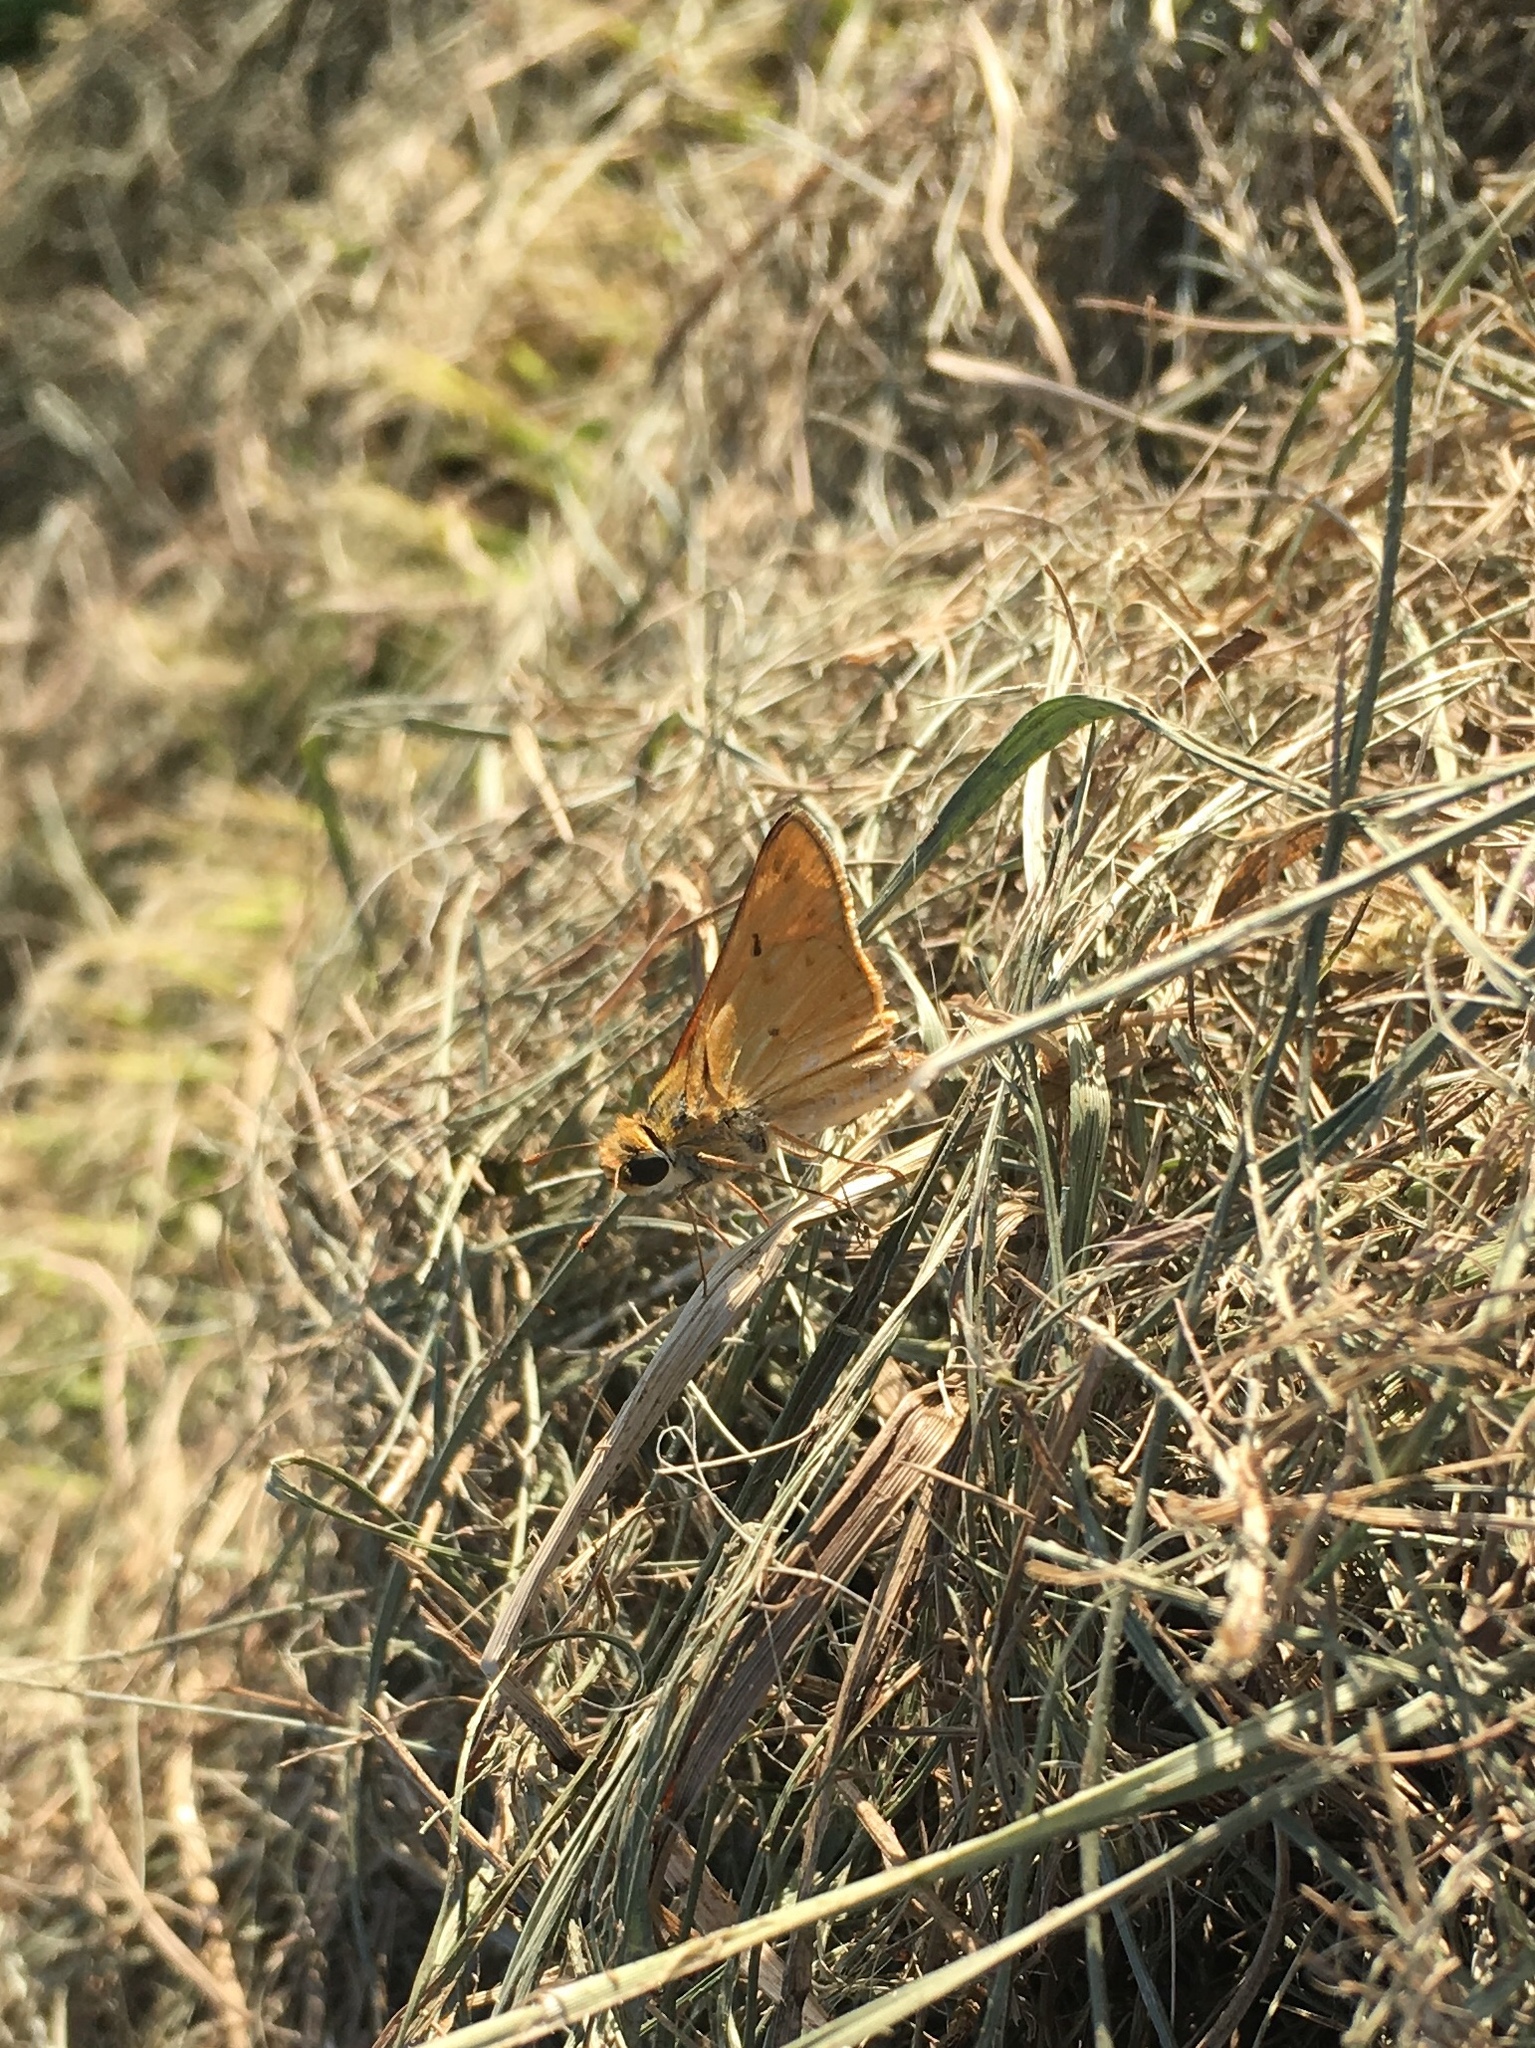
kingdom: Animalia
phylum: Arthropoda
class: Insecta
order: Lepidoptera
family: Hesperiidae
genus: Hylephila
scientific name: Hylephila phyleus
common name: Fiery skipper
